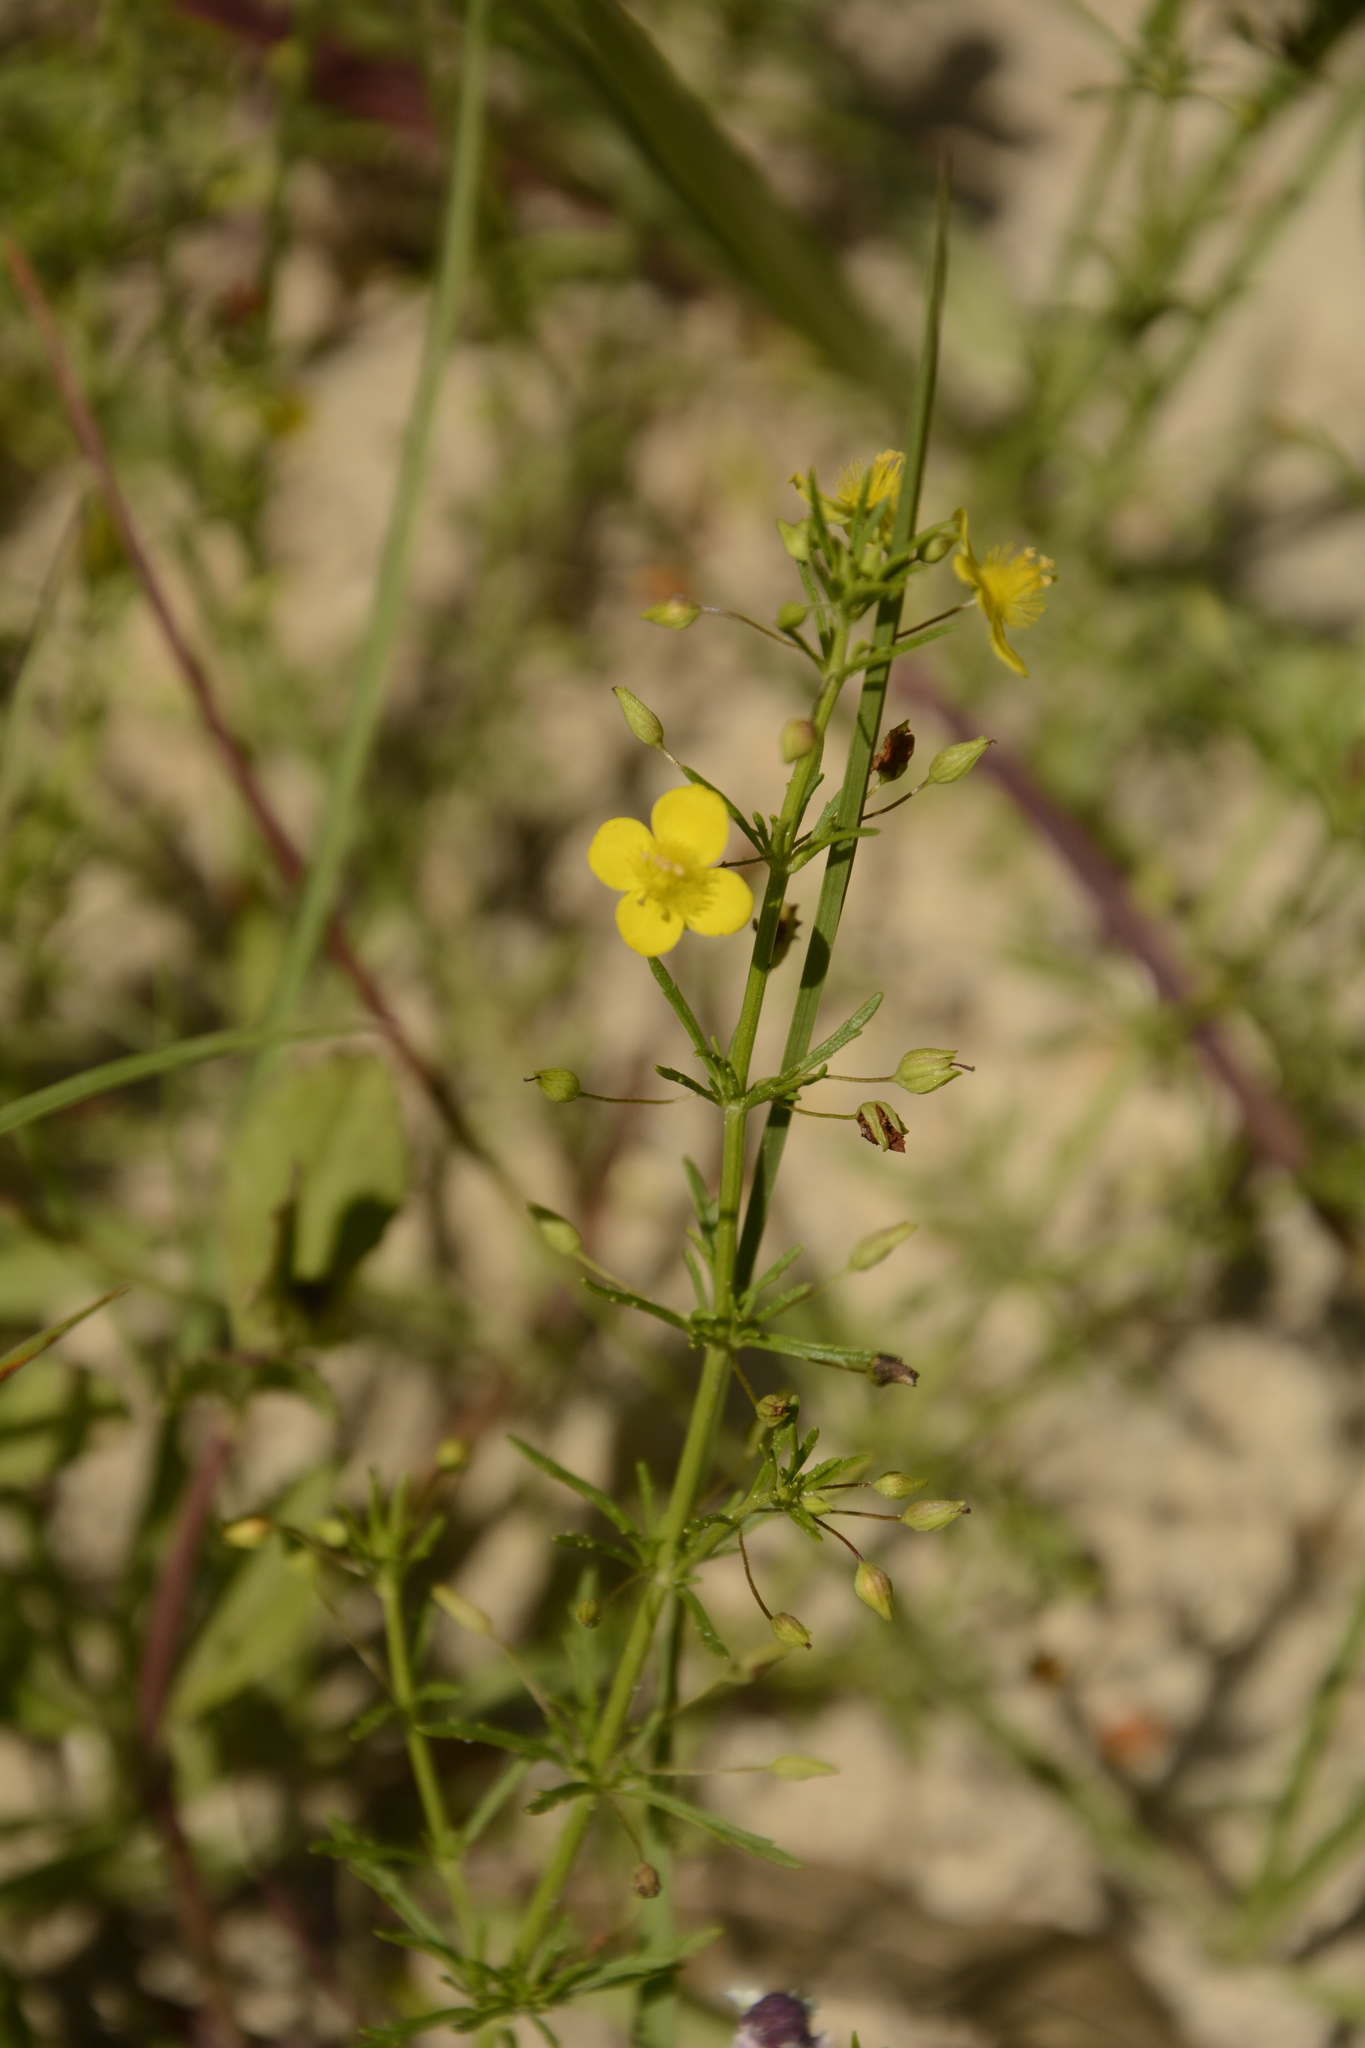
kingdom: Plantae
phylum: Tracheophyta
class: Magnoliopsida
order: Lamiales
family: Plantaginaceae
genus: Scoparia
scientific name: Scoparia montevidensis
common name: Broomwort
